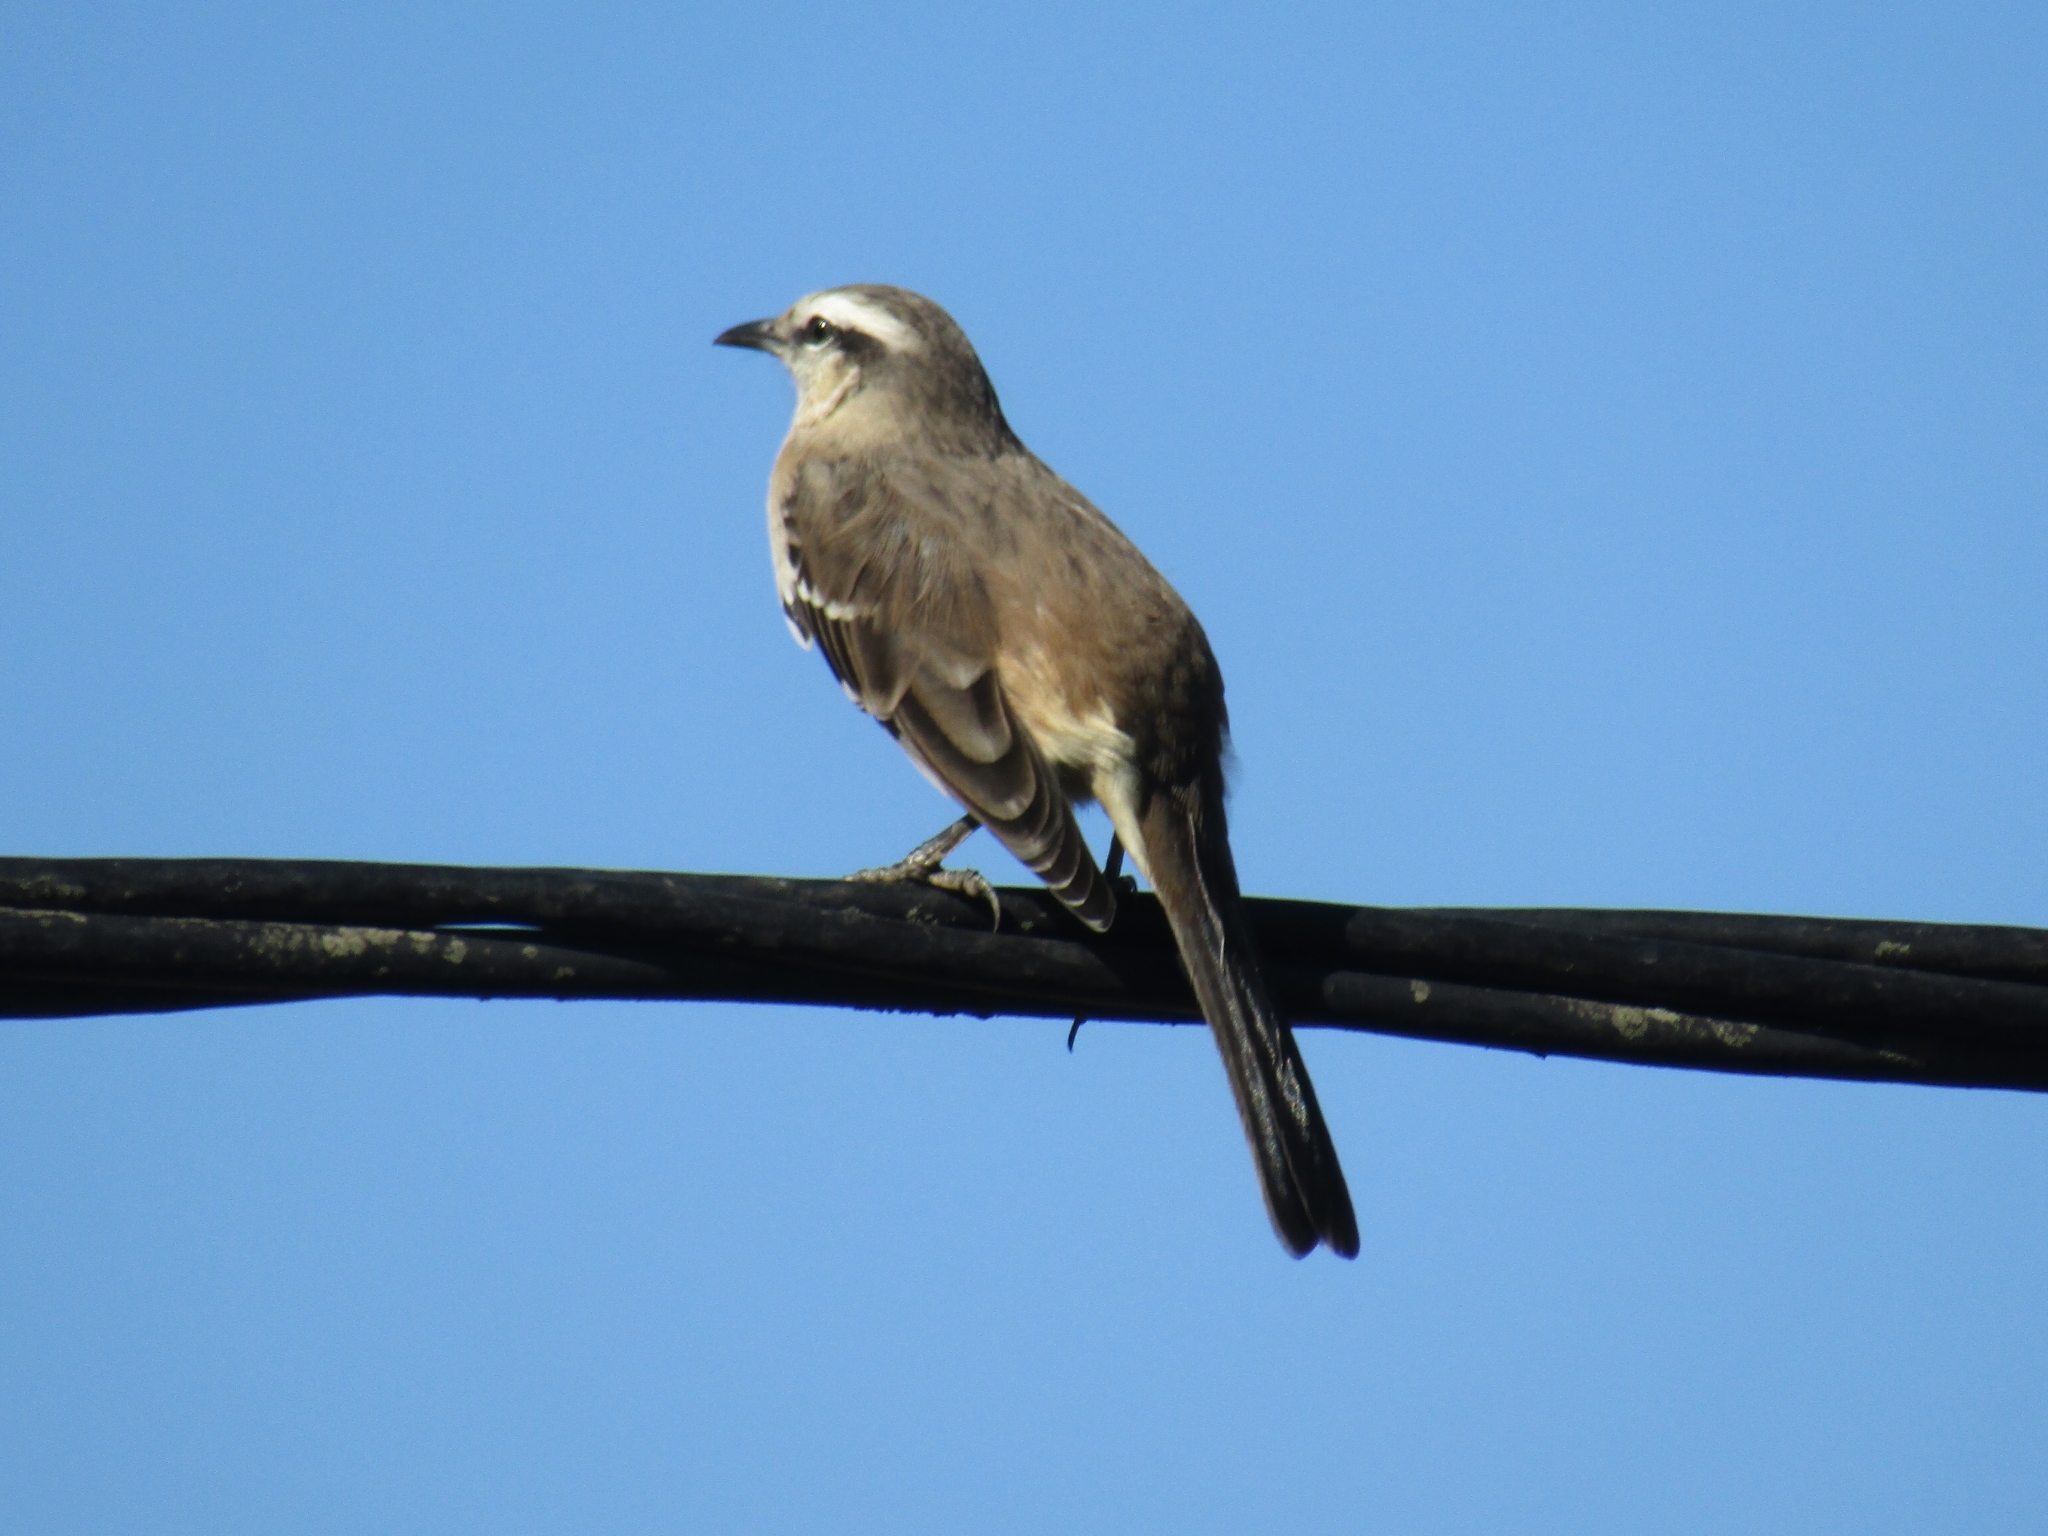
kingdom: Animalia
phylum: Chordata
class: Aves
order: Passeriformes
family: Mimidae
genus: Mimus
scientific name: Mimus saturninus
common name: Chalk-browed mockingbird
